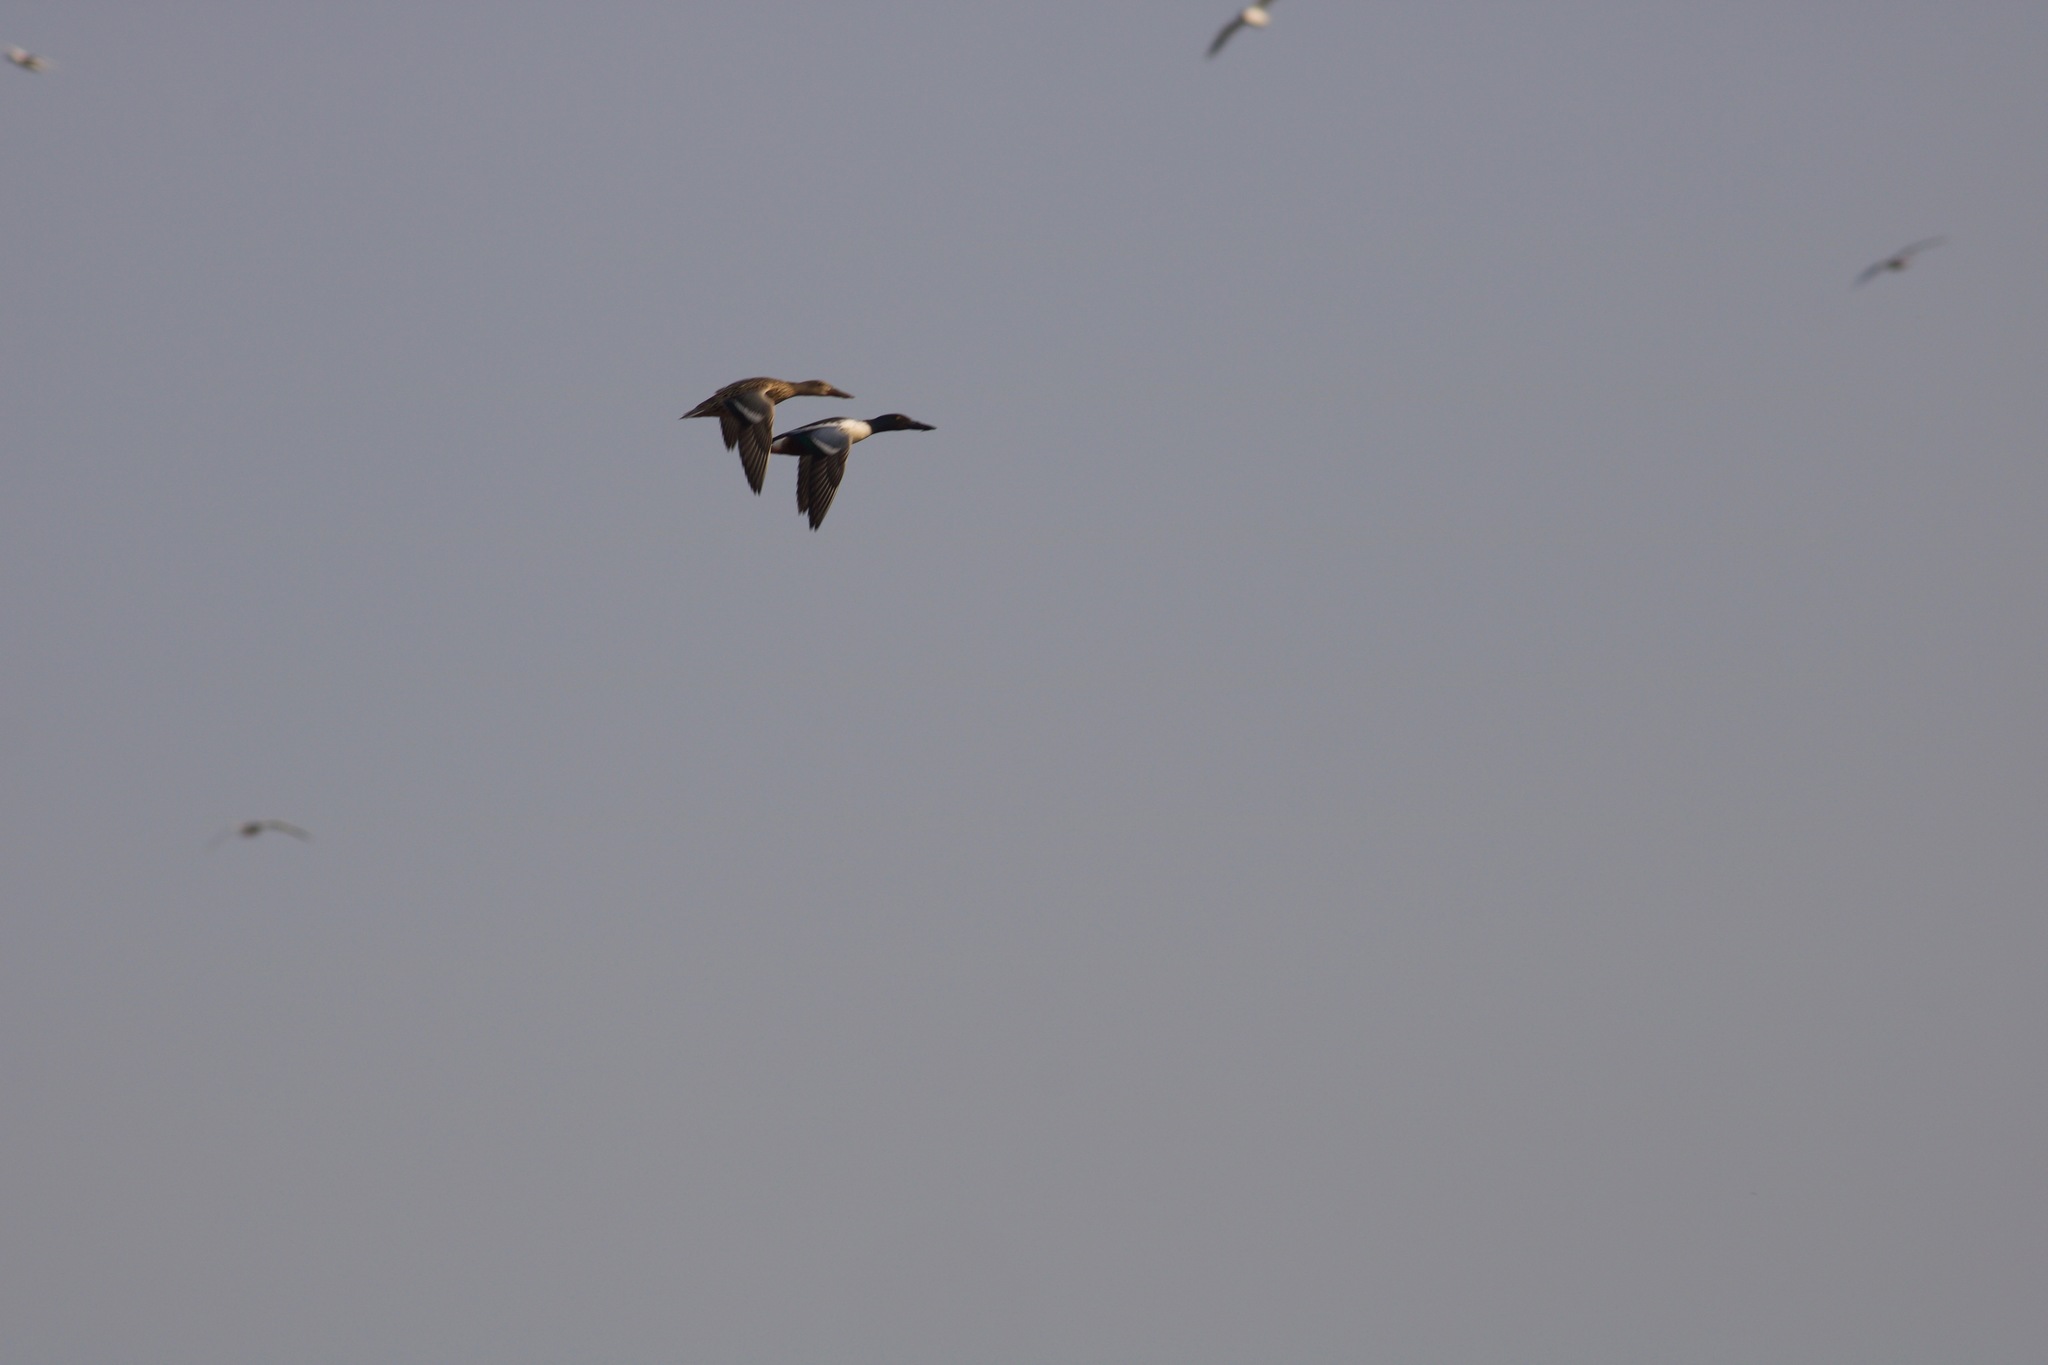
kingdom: Animalia
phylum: Chordata
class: Aves
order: Anseriformes
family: Anatidae
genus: Spatula
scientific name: Spatula clypeata
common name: Northern shoveler
